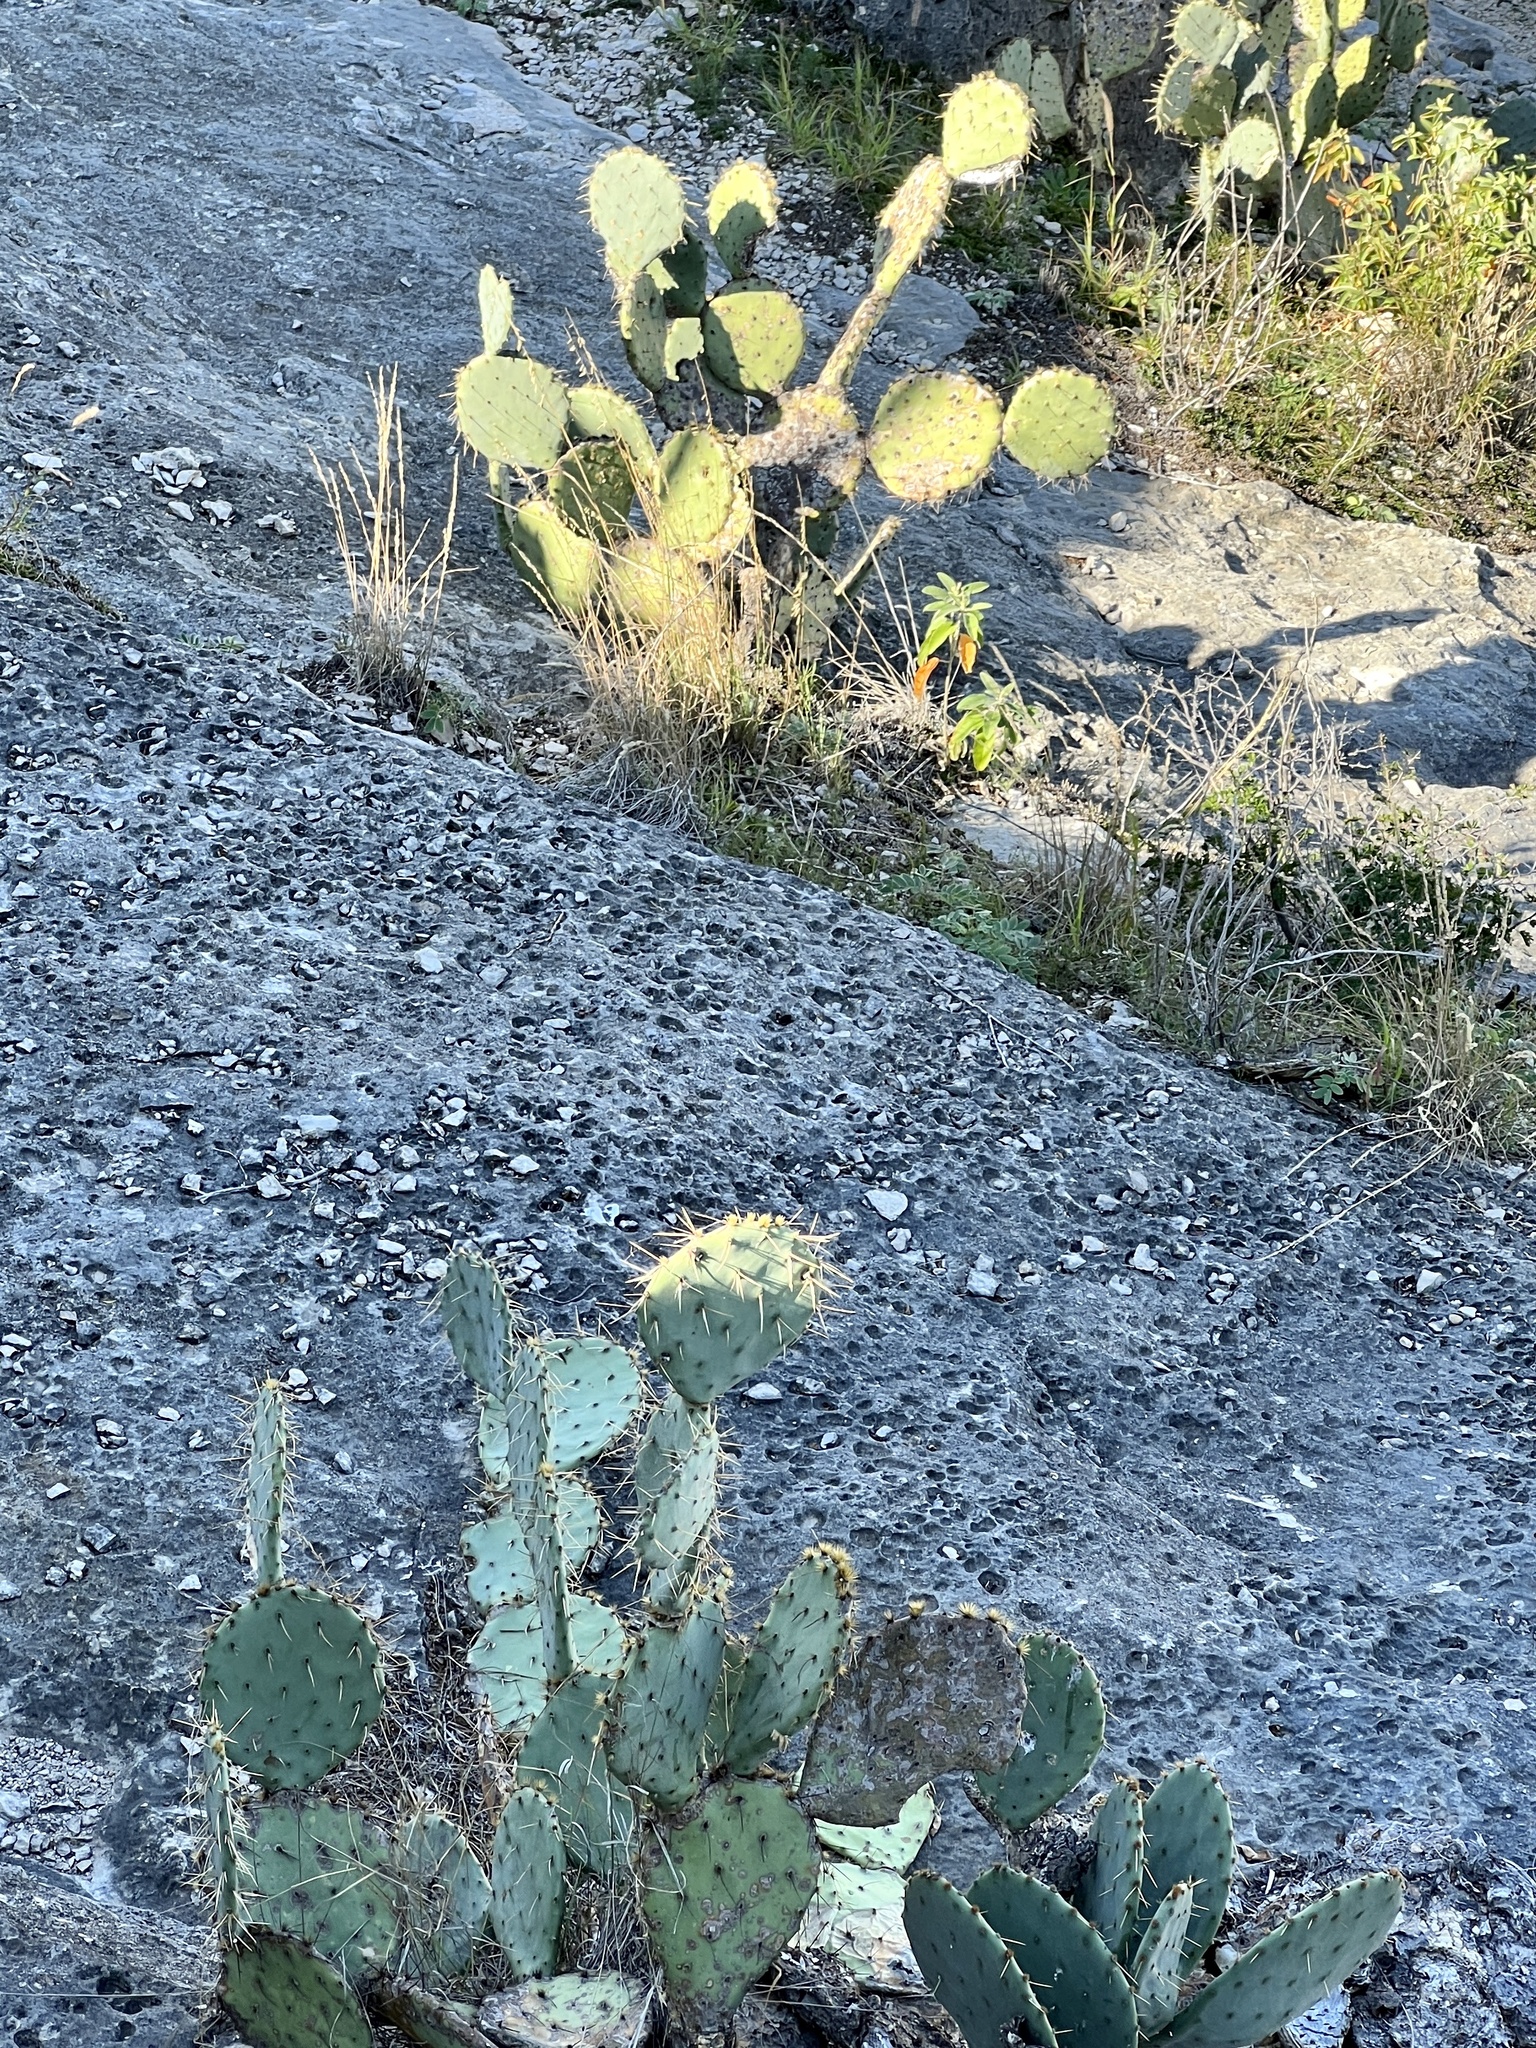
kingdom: Plantae
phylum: Tracheophyta
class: Magnoliopsida
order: Caryophyllales
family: Cactaceae
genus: Opuntia
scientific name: Opuntia engelmannii
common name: Cactus-apple
